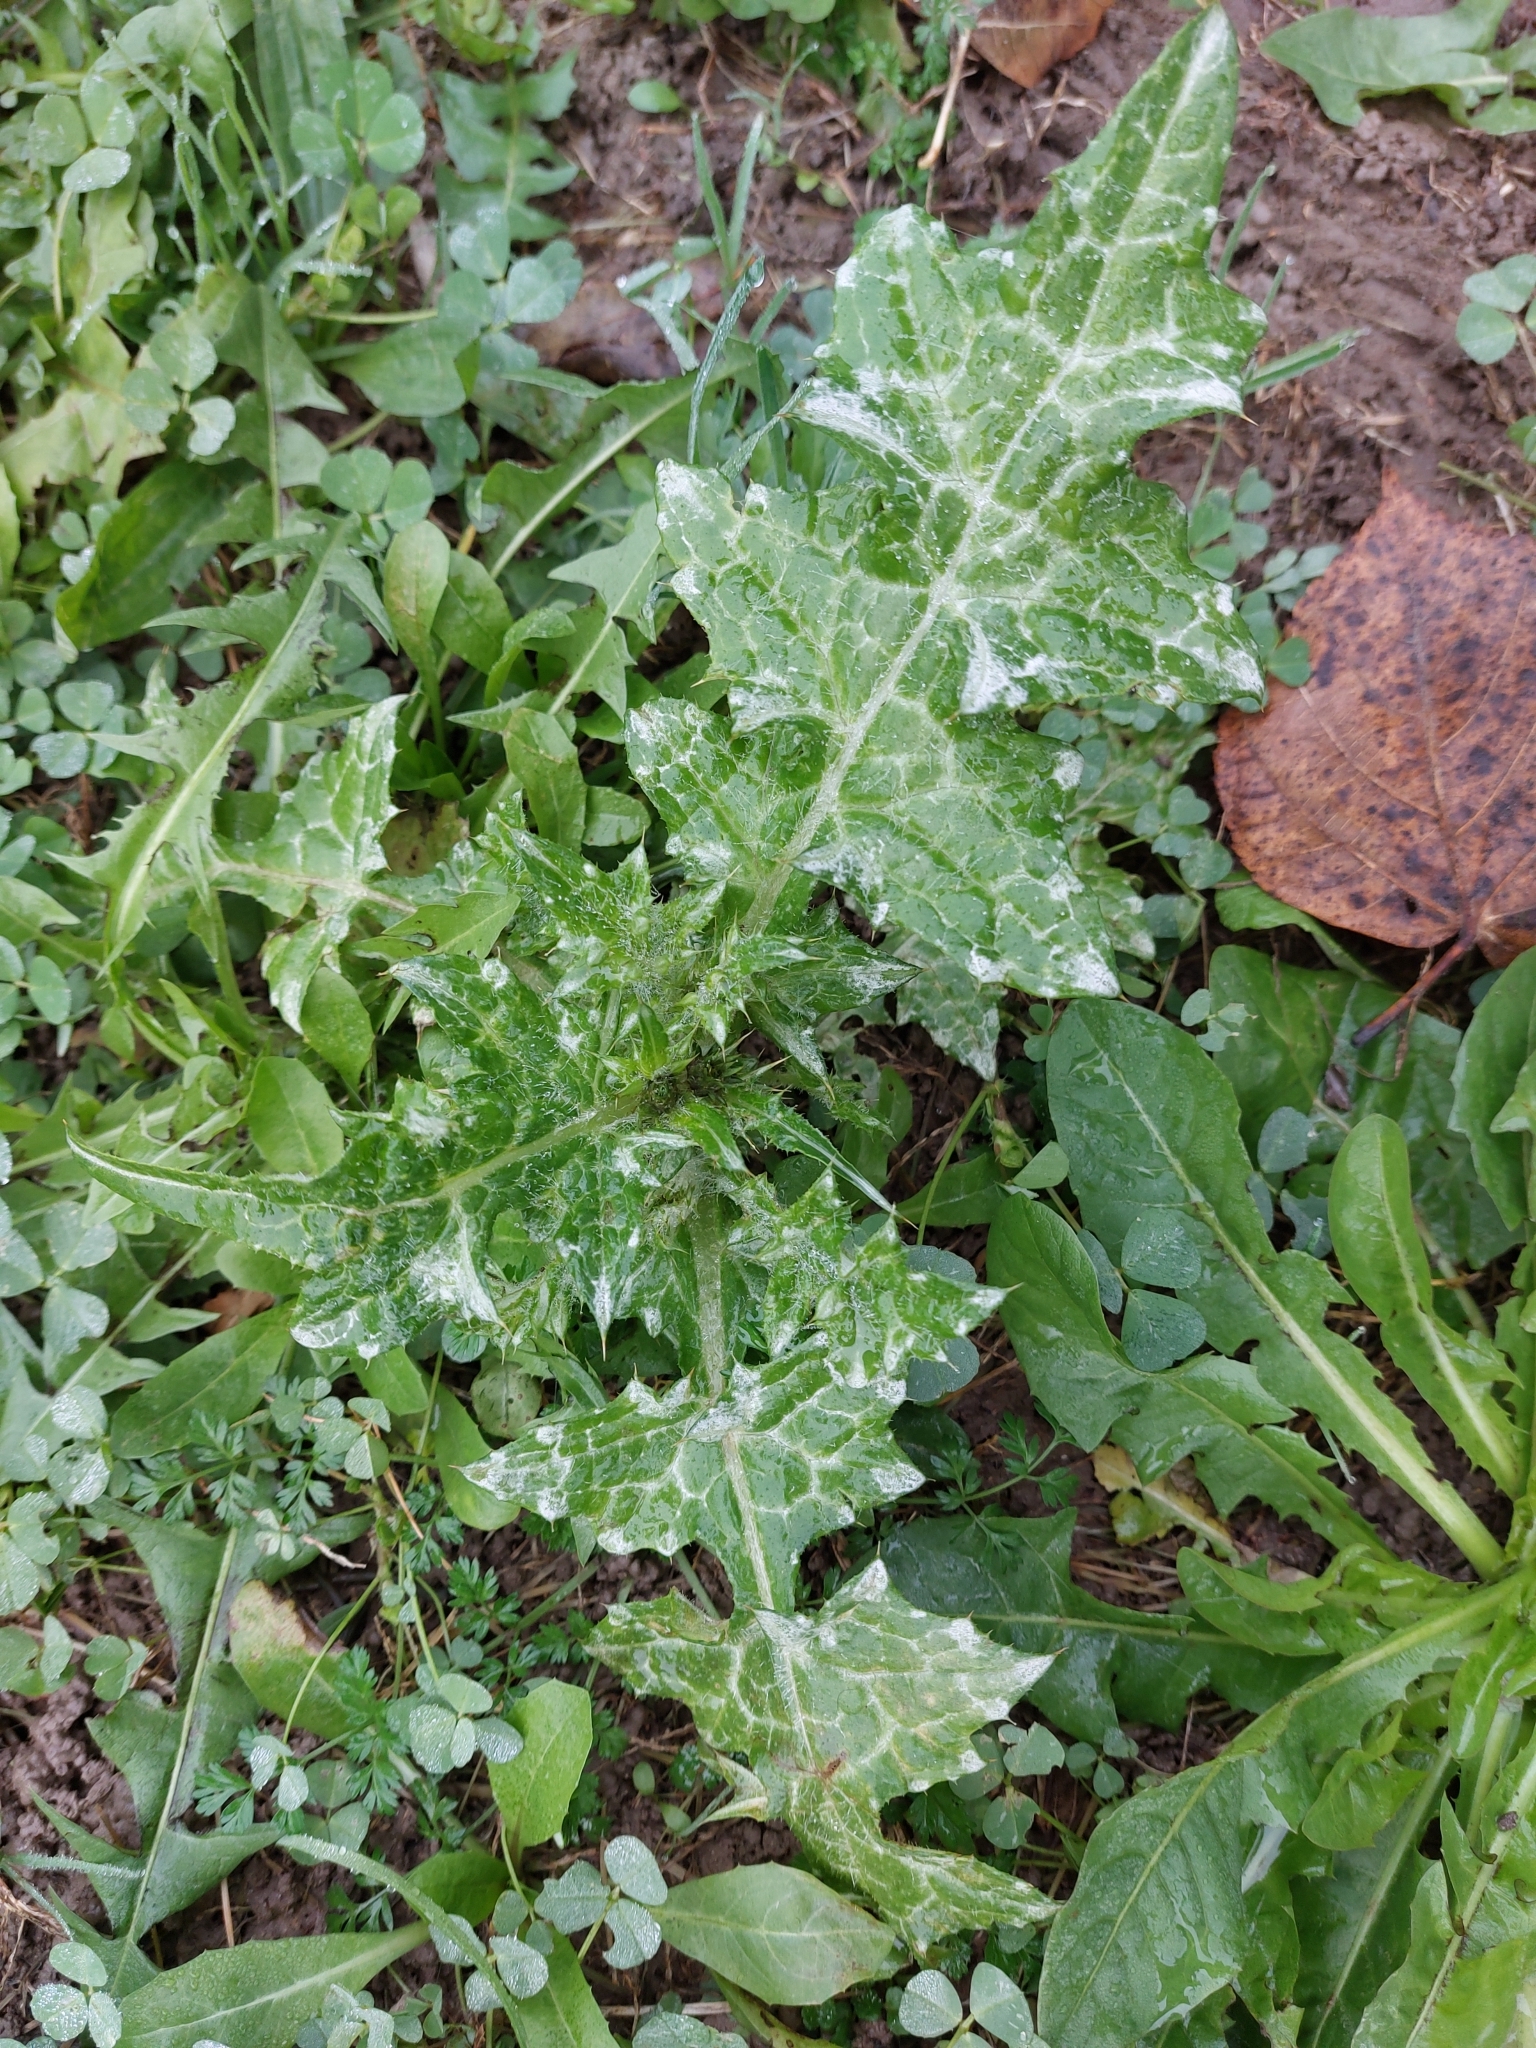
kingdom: Plantae
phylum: Tracheophyta
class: Magnoliopsida
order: Asterales
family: Asteraceae
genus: Carduus
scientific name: Carduus pycnocephalus
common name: Plymouth thistle
